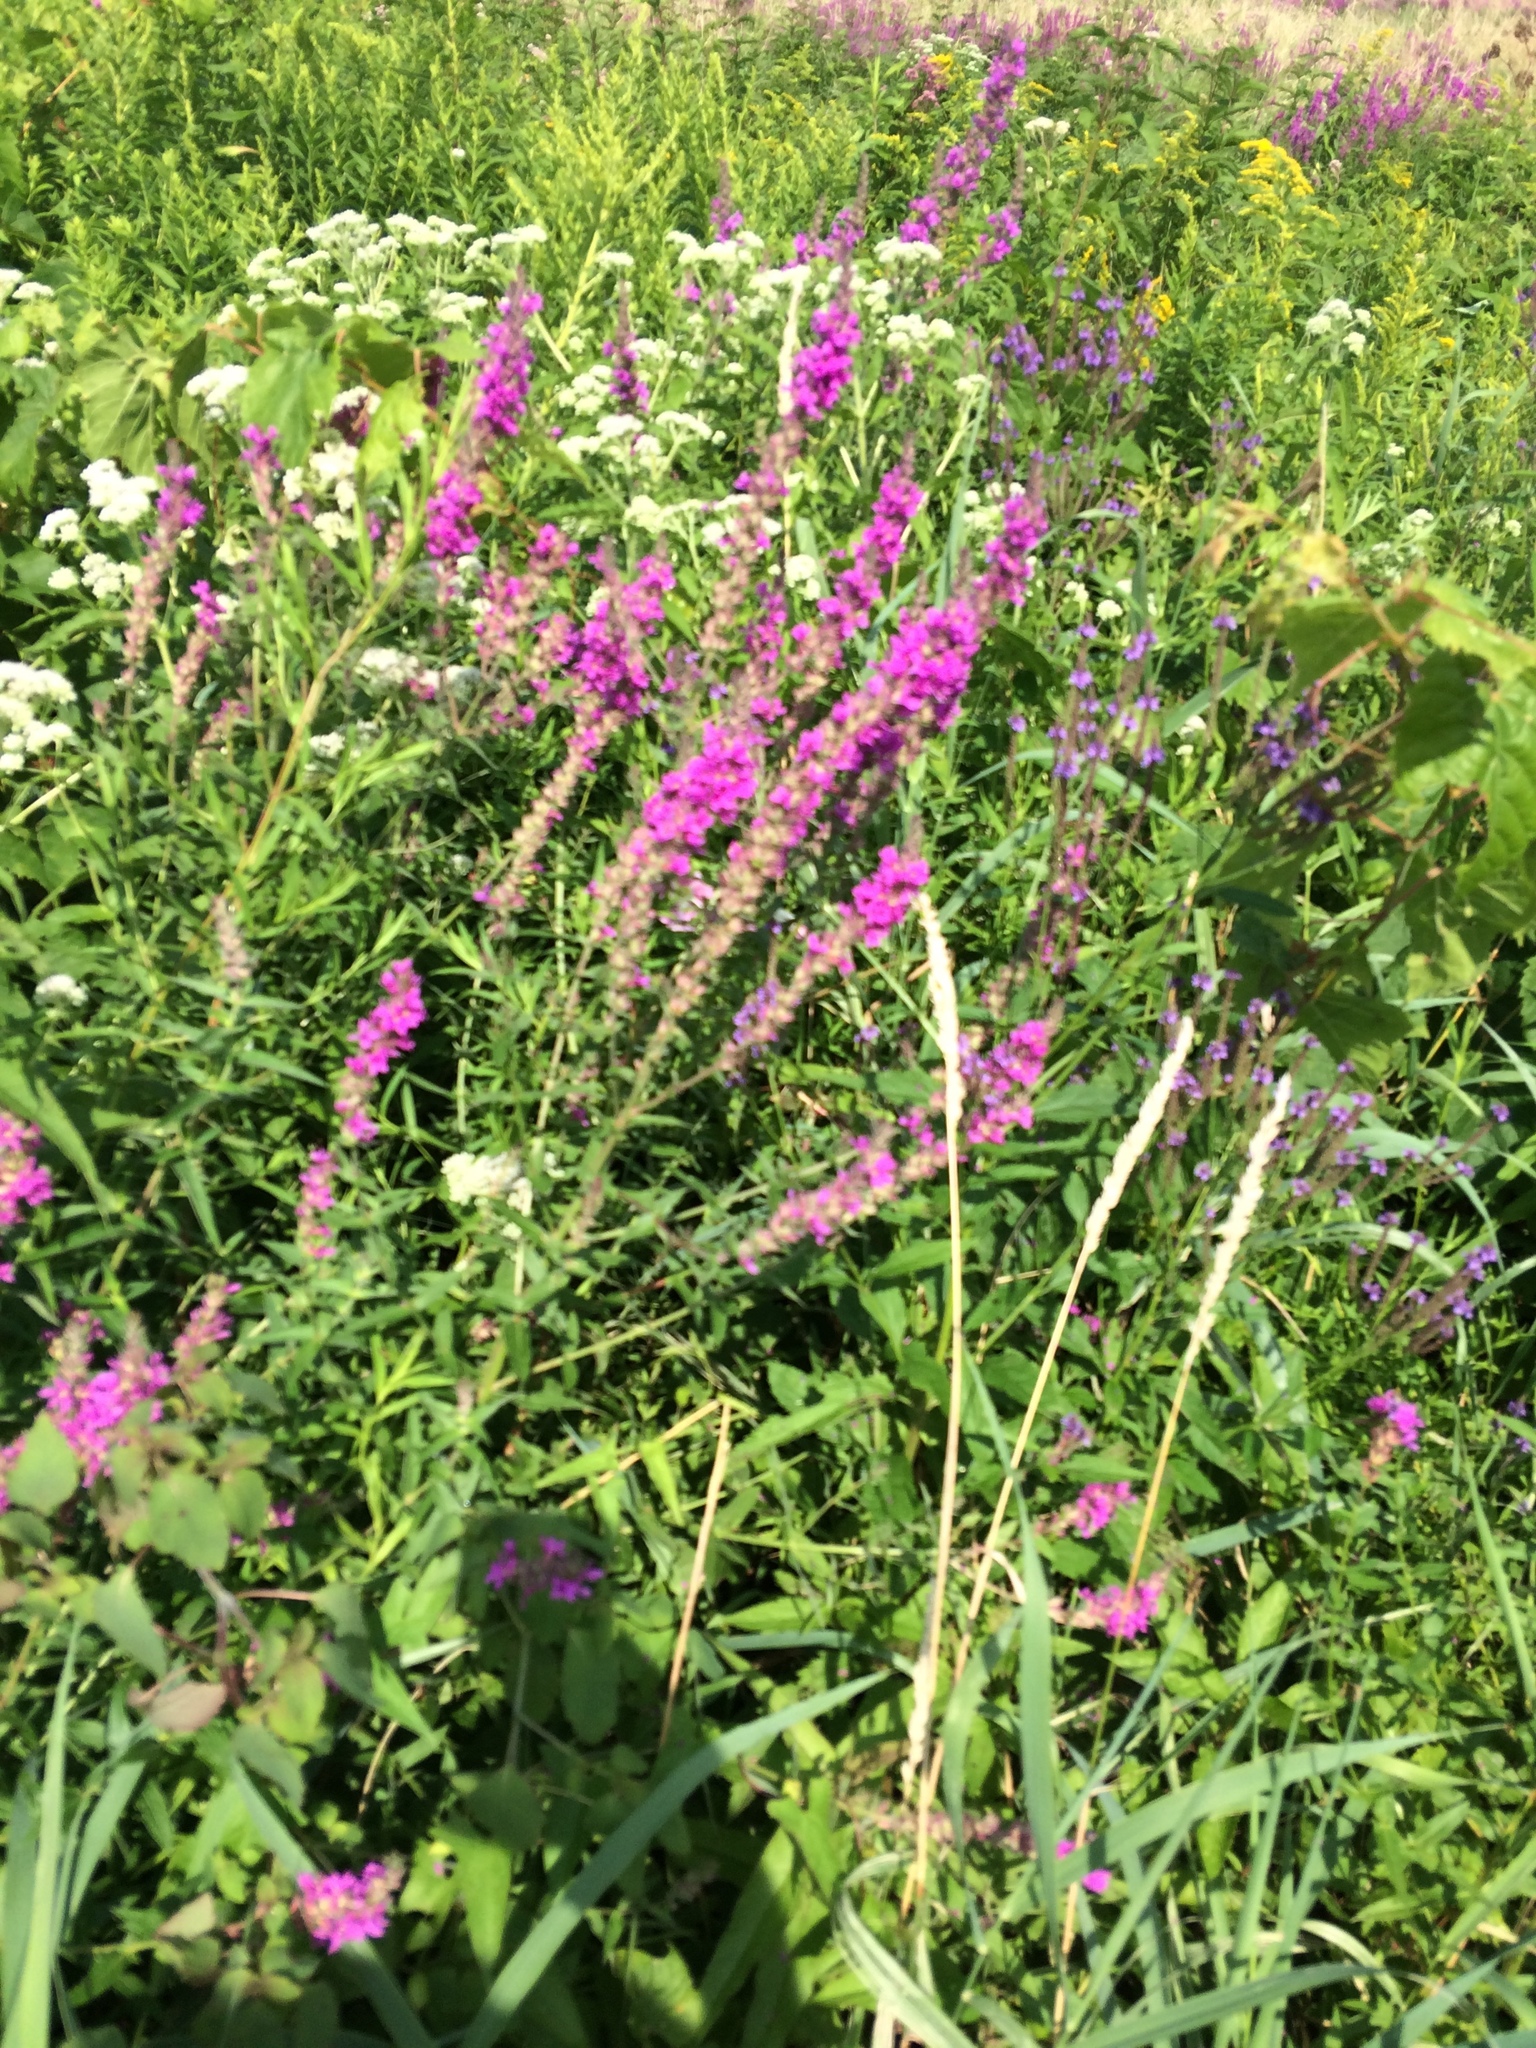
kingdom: Plantae
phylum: Tracheophyta
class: Magnoliopsida
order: Myrtales
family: Lythraceae
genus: Lythrum
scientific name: Lythrum salicaria
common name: Purple loosestrife
